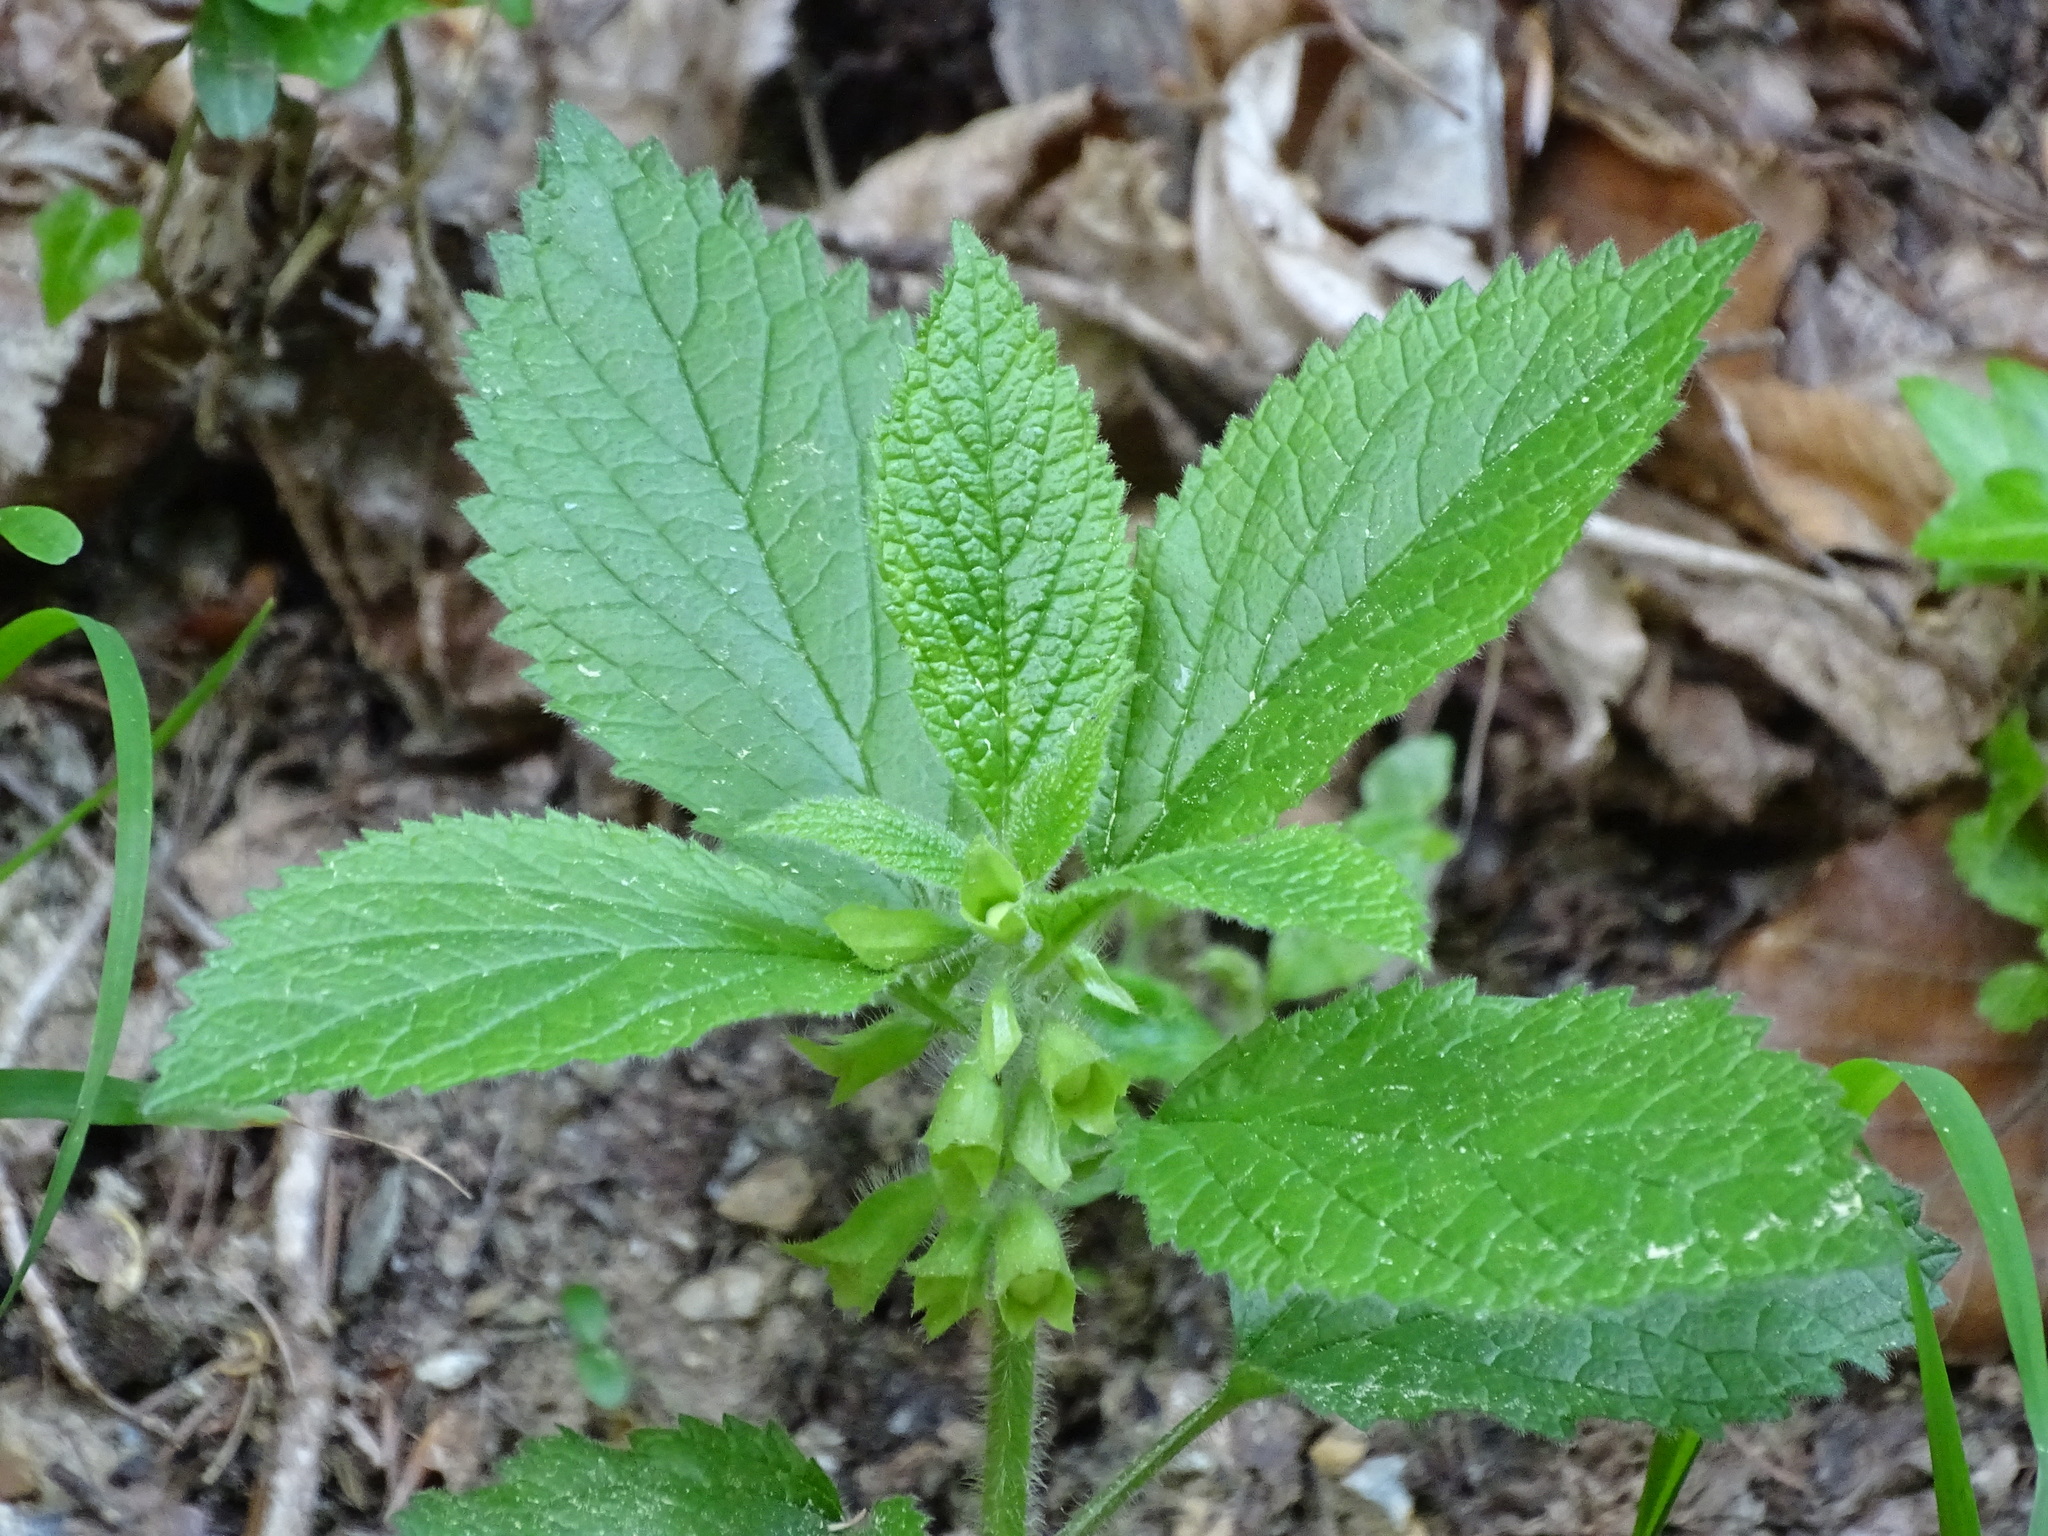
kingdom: Plantae
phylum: Tracheophyta
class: Magnoliopsida
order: Lamiales
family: Lamiaceae
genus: Melittis
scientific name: Melittis melissophyllum
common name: Bastard balm
